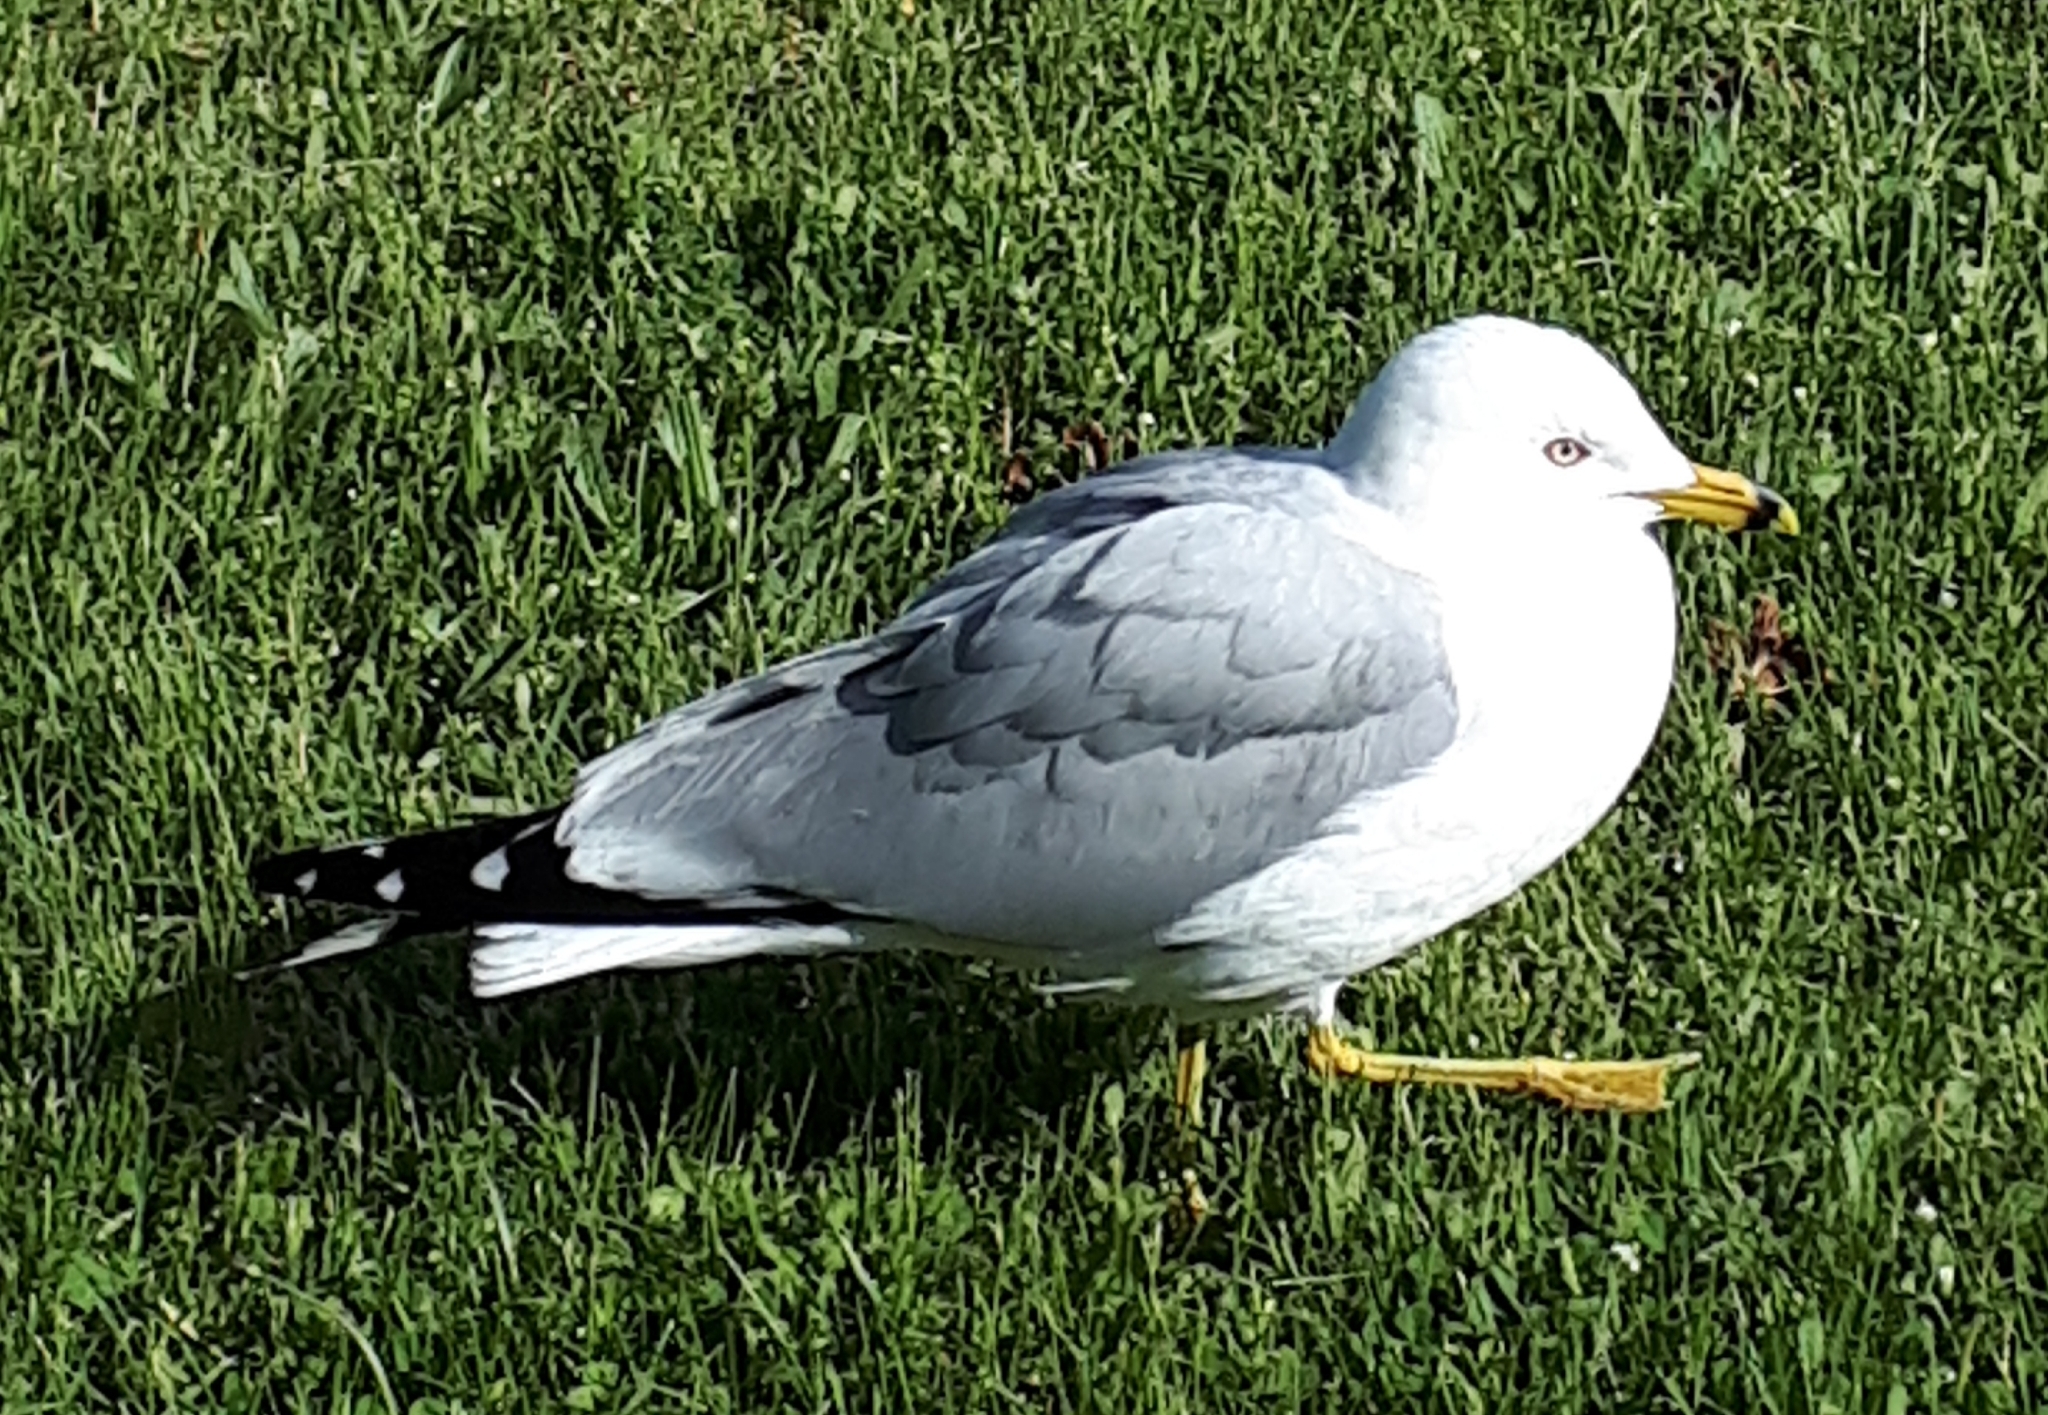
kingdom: Animalia
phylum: Chordata
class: Aves
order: Charadriiformes
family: Laridae
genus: Larus
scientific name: Larus delawarensis
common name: Ring-billed gull
